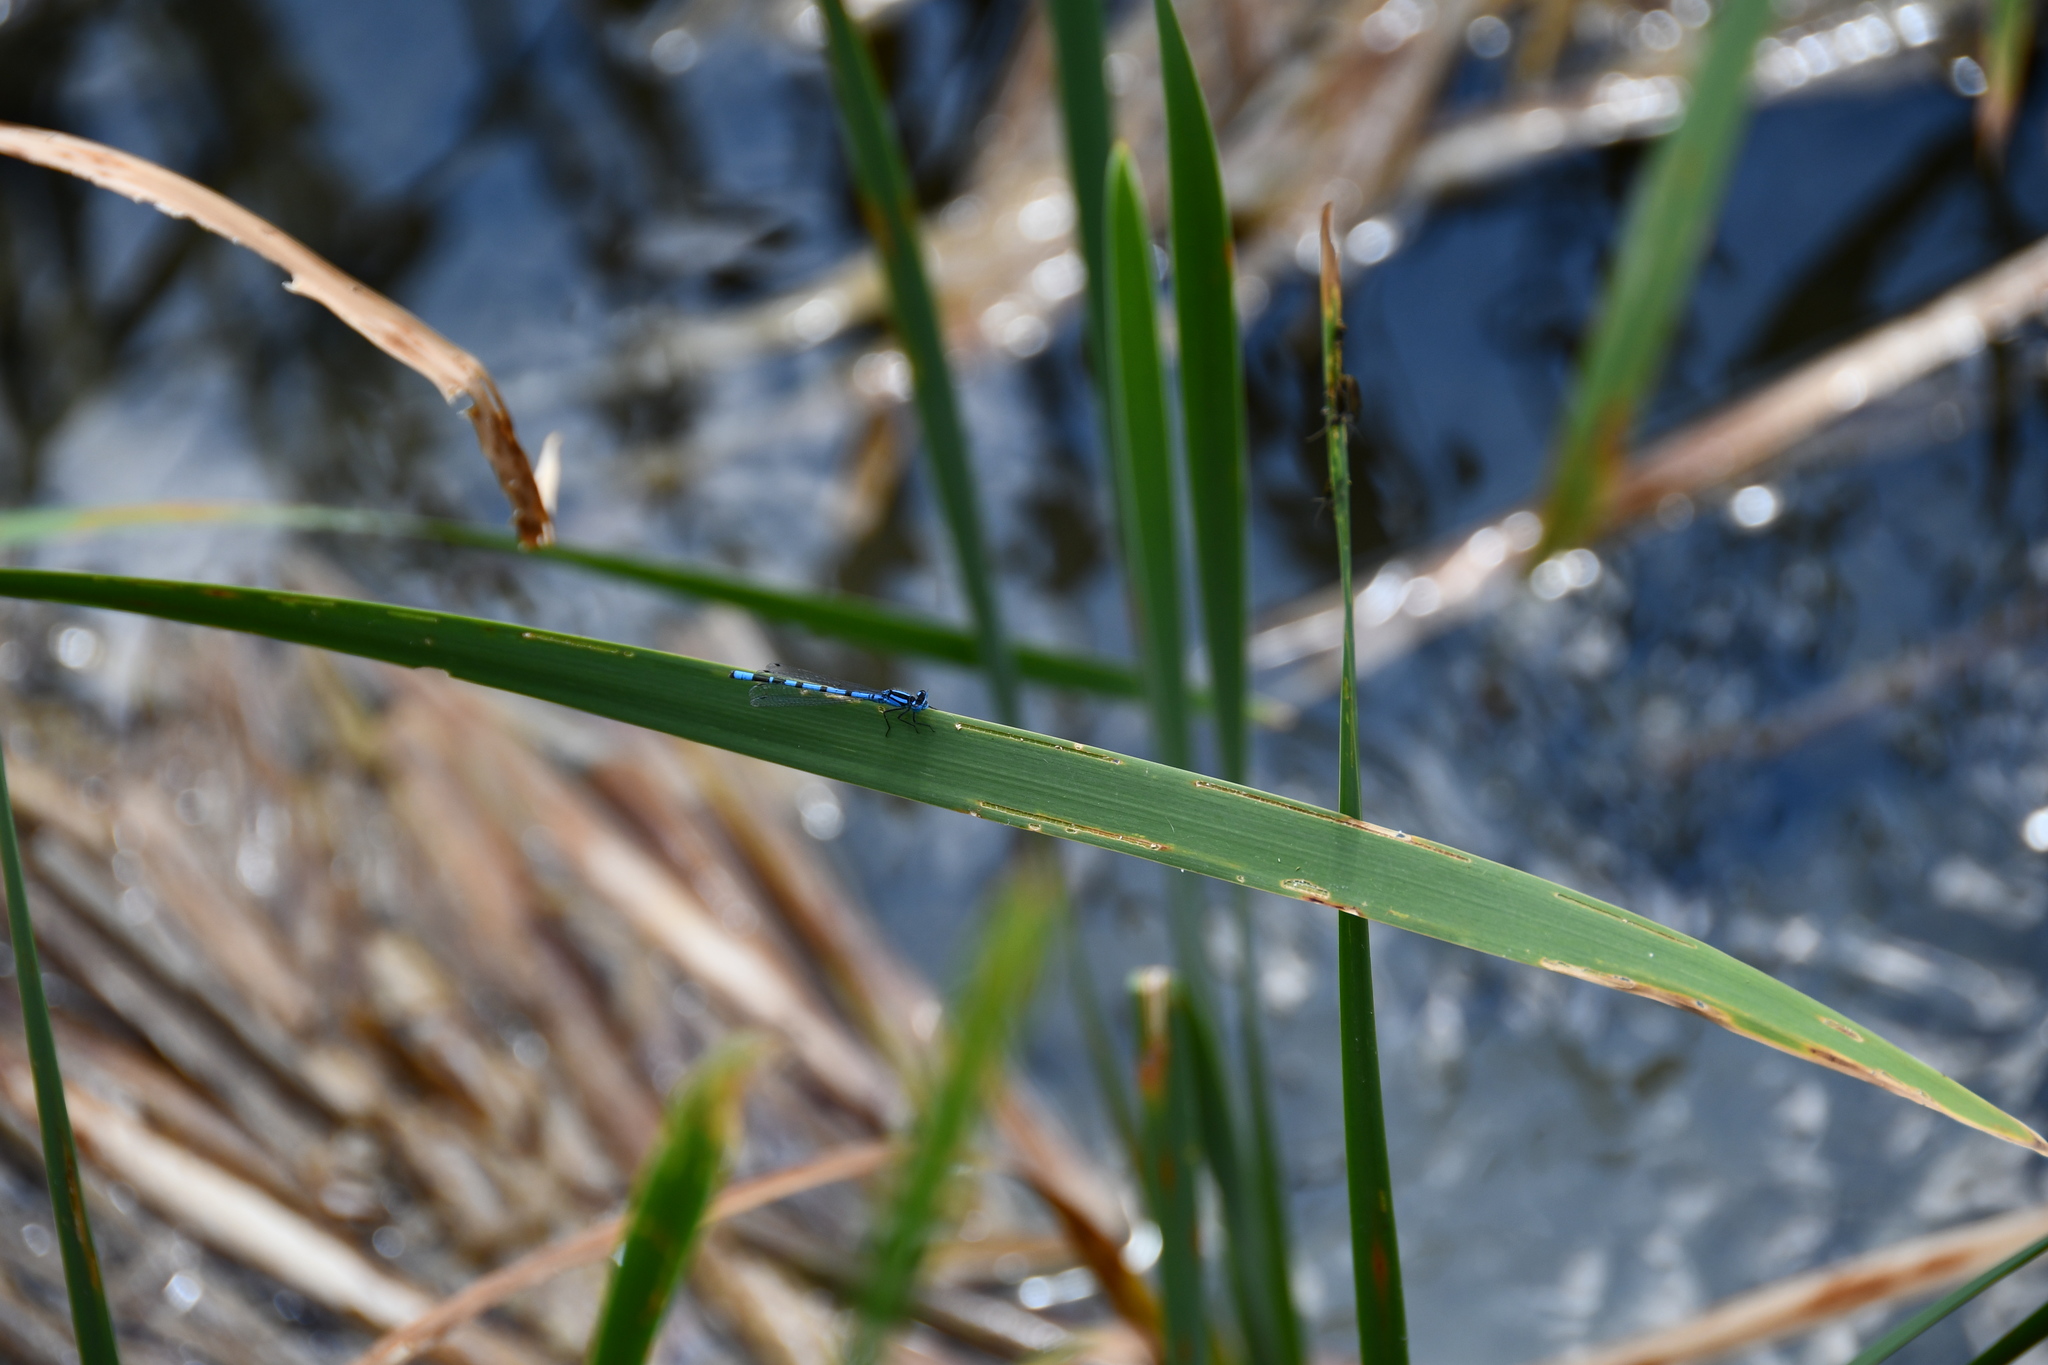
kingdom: Animalia
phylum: Arthropoda
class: Insecta
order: Odonata
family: Coenagrionidae
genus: Enallagma
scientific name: Enallagma cyathigerum
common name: Common blue damselfly
